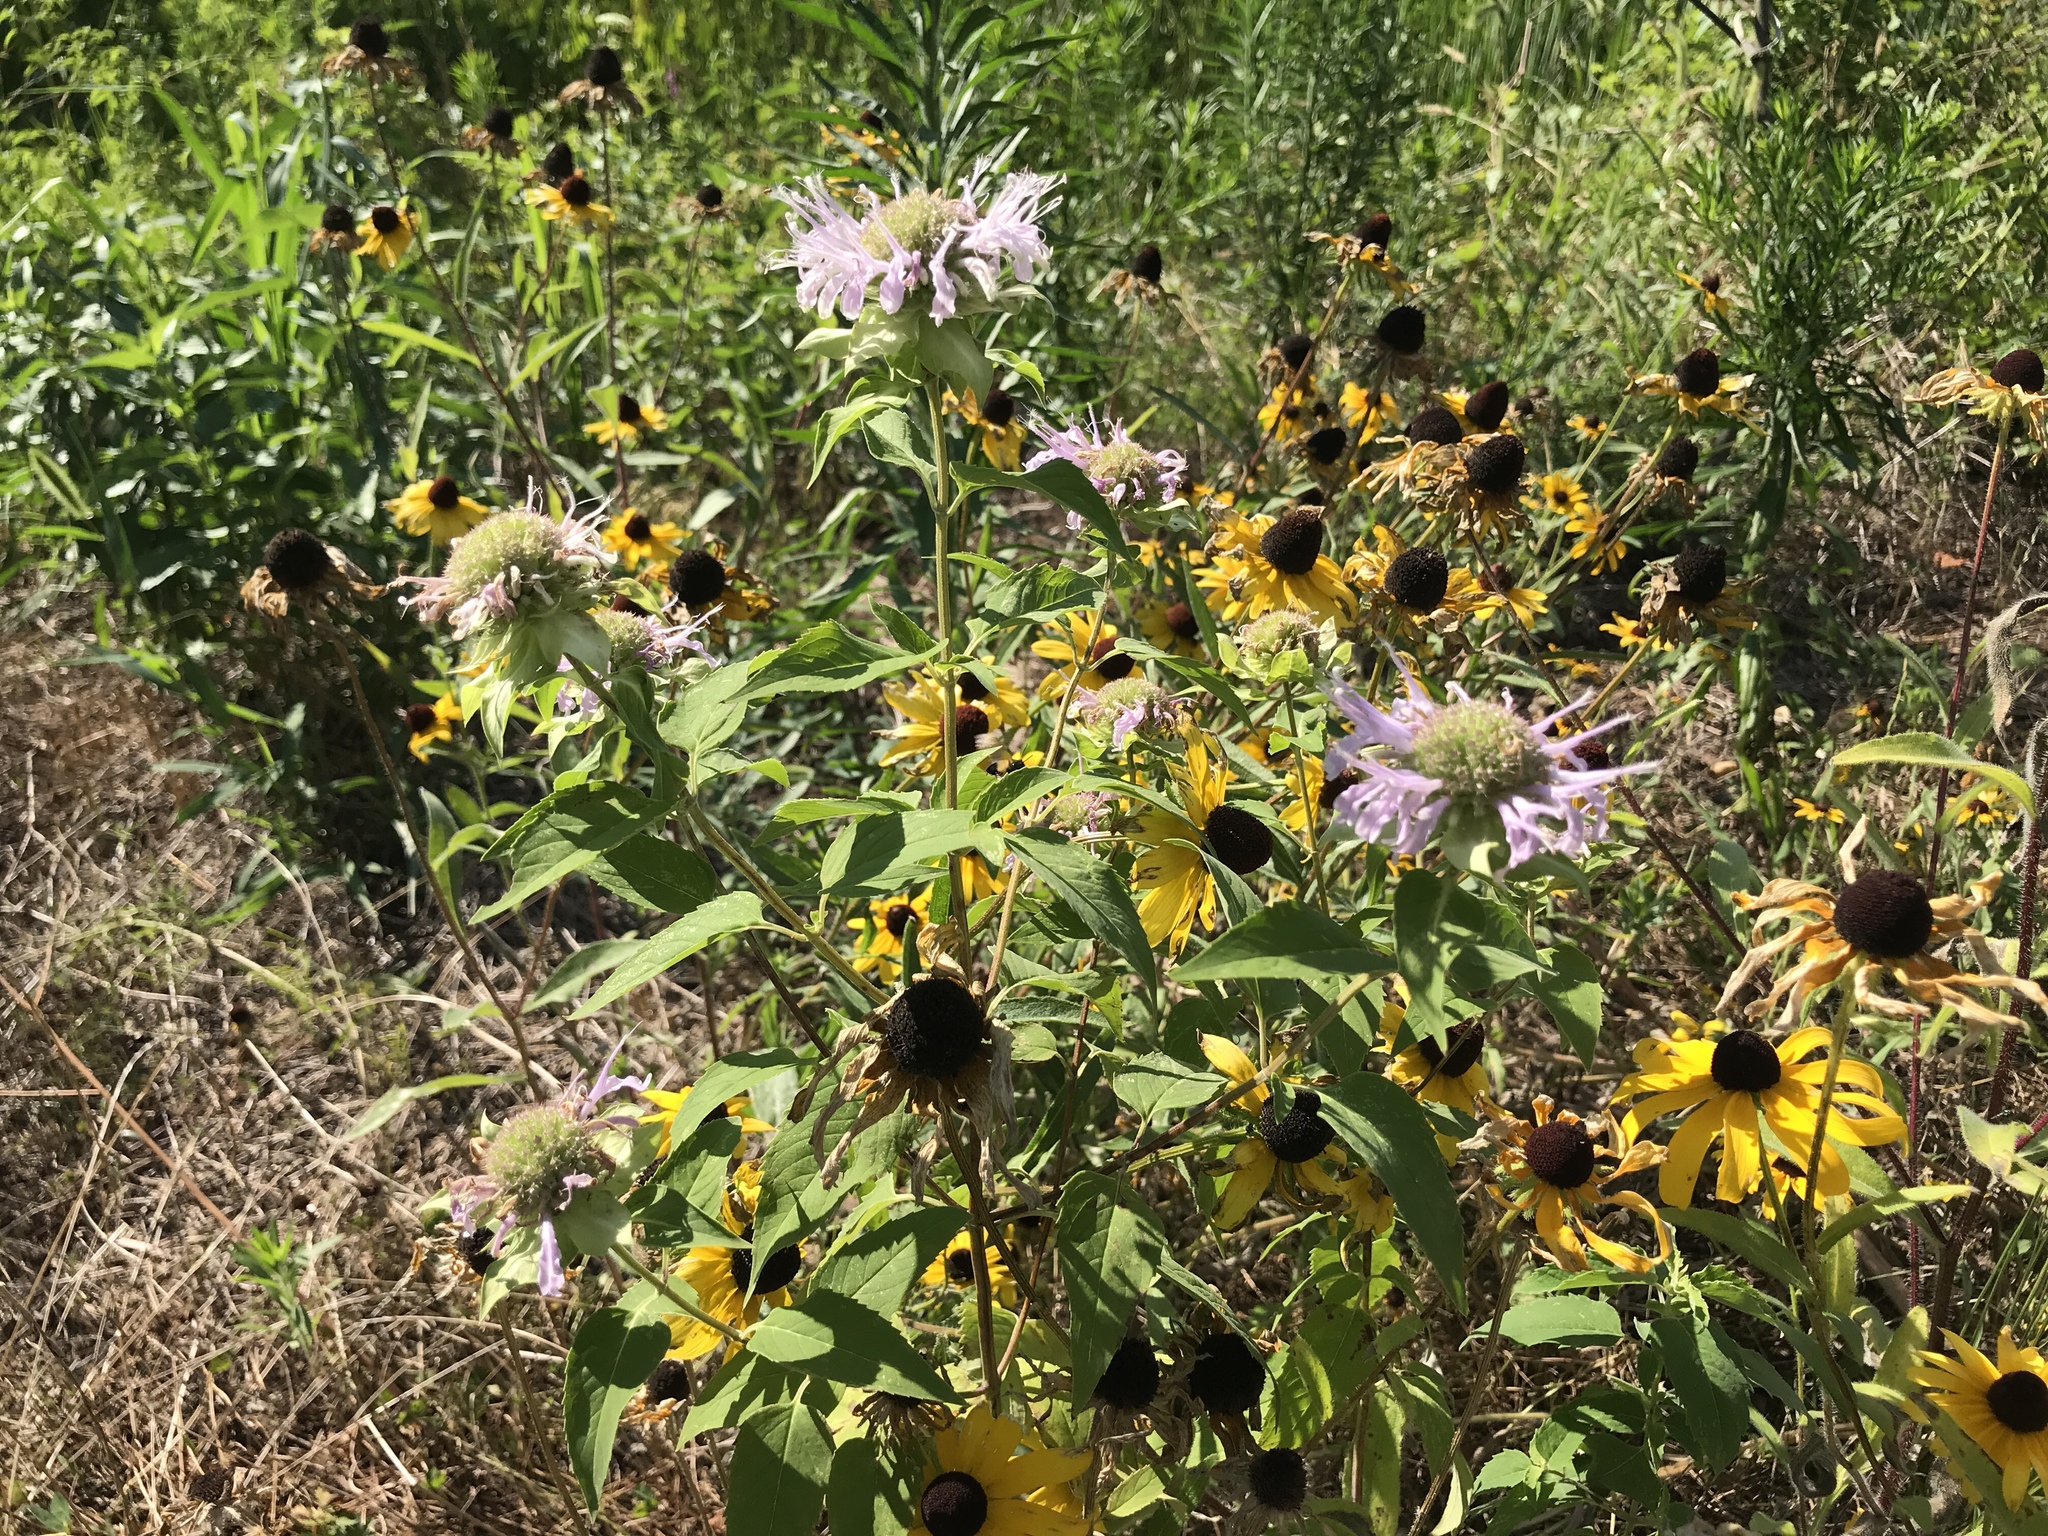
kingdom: Plantae
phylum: Tracheophyta
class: Magnoliopsida
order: Lamiales
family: Lamiaceae
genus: Monarda
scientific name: Monarda fistulosa
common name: Purple beebalm
